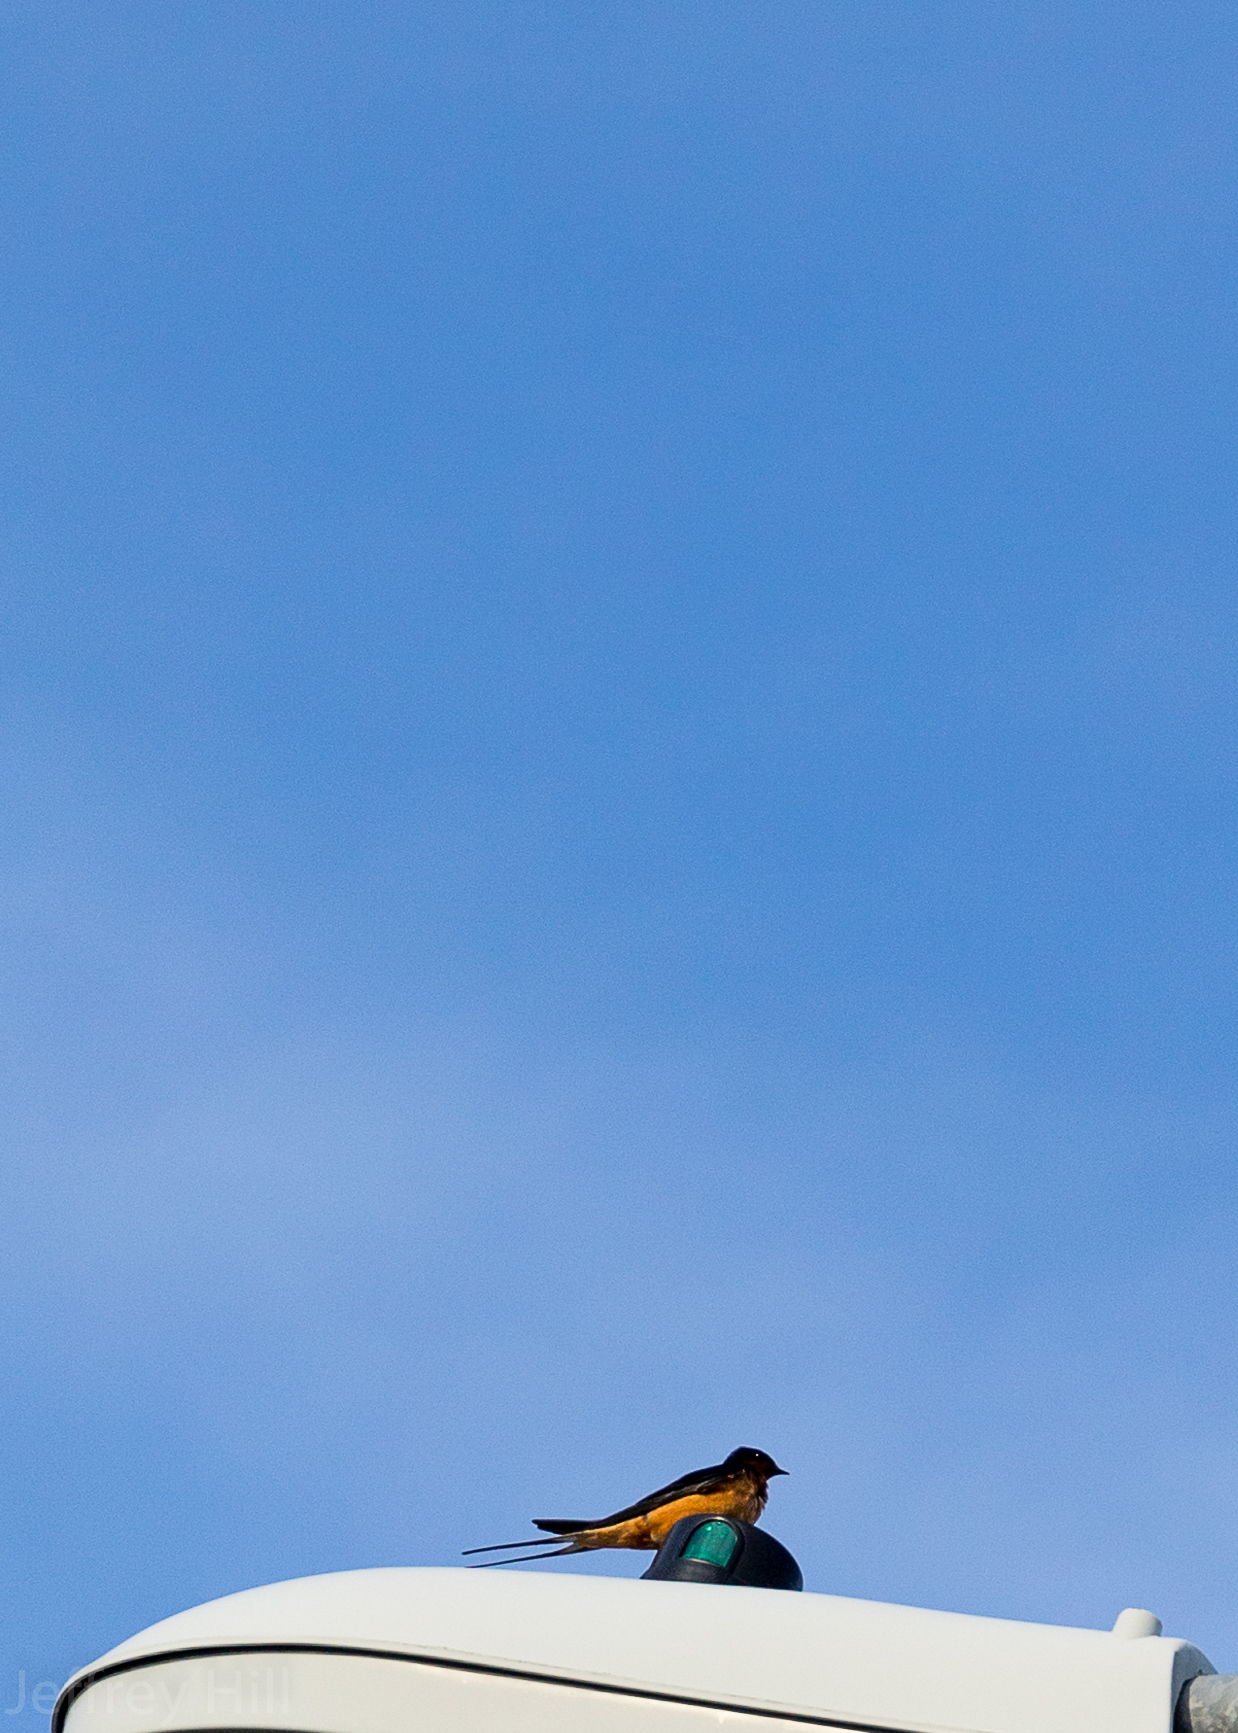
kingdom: Animalia
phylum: Chordata
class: Aves
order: Passeriformes
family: Hirundinidae
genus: Hirundo
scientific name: Hirundo rustica
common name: Barn swallow
